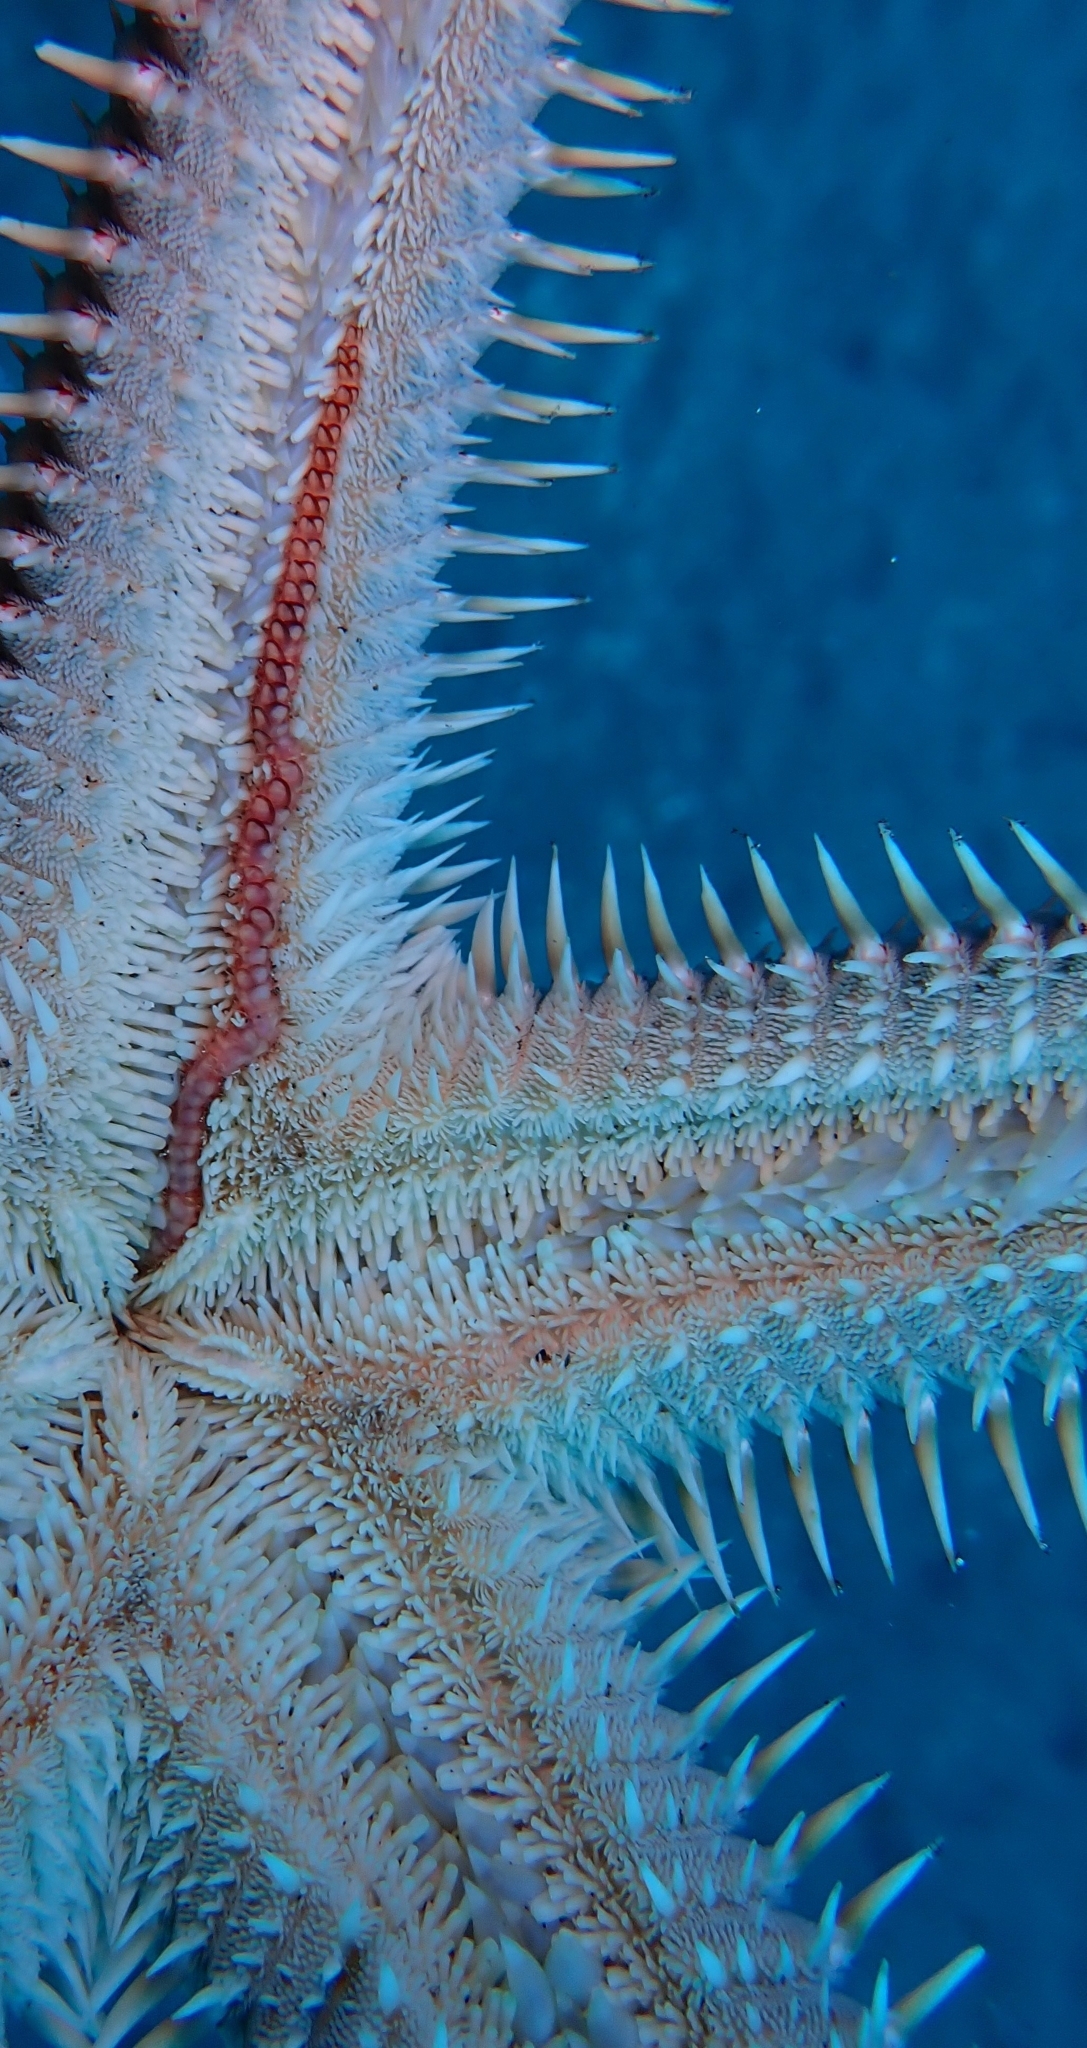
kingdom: Animalia
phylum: Annelida
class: Polychaeta
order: Phyllodocida
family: Polynoidae
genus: Acholoe
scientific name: Acholoe squamosa
